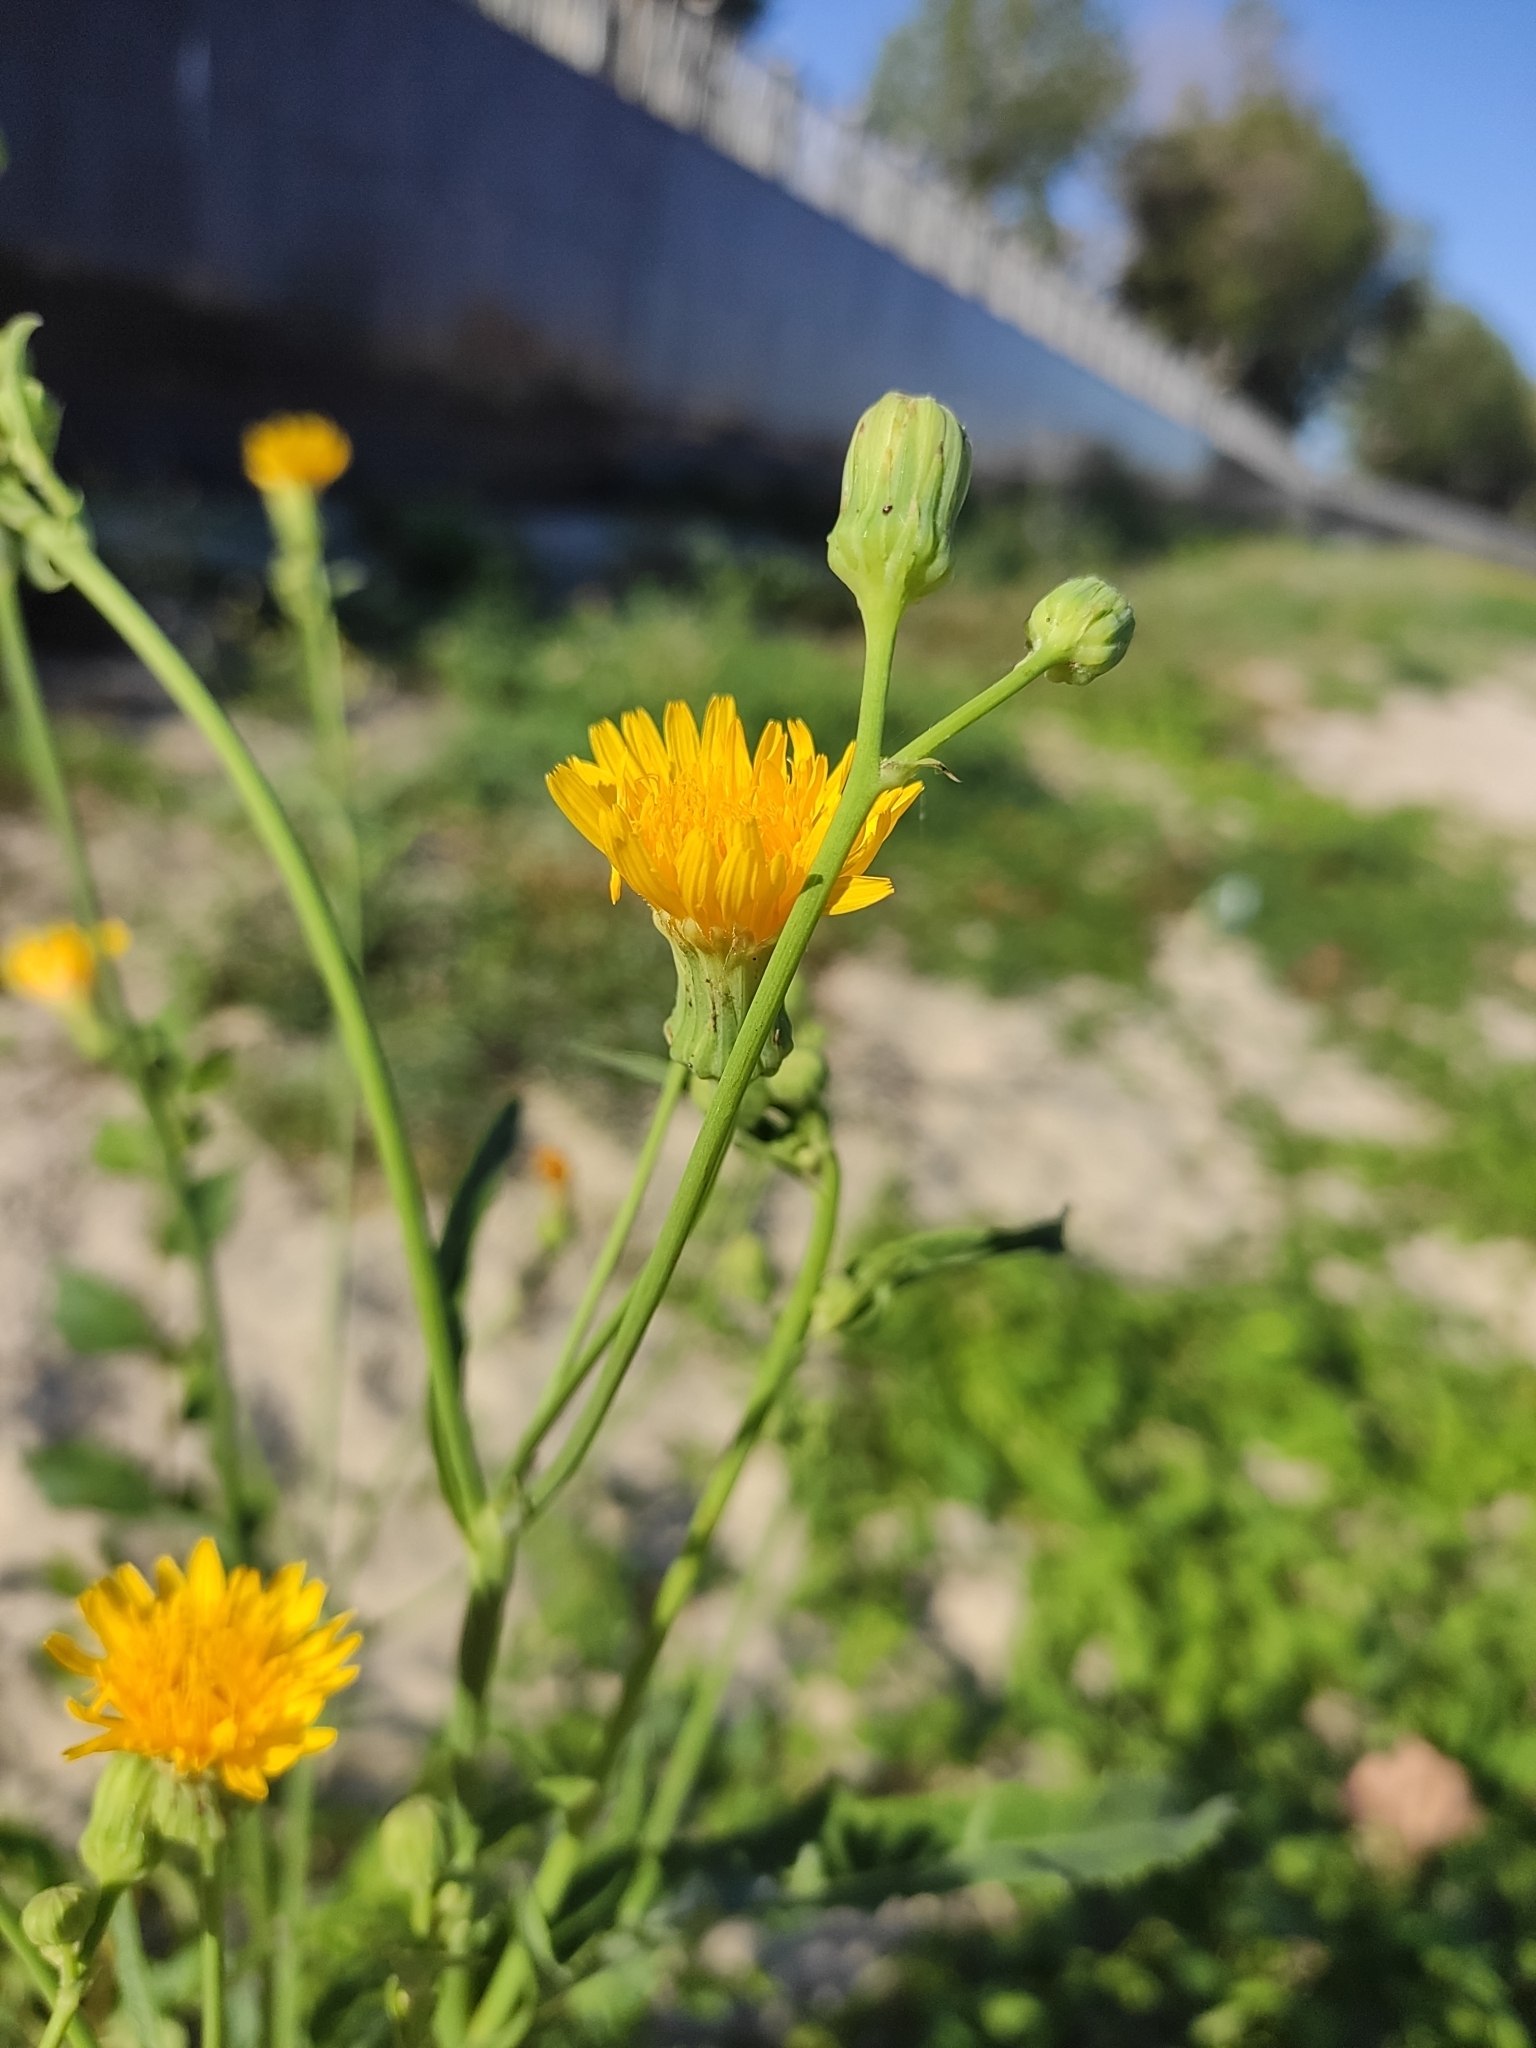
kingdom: Plantae
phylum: Tracheophyta
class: Magnoliopsida
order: Asterales
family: Asteraceae
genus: Sonchus
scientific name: Sonchus arvensis
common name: Perennial sow-thistle
